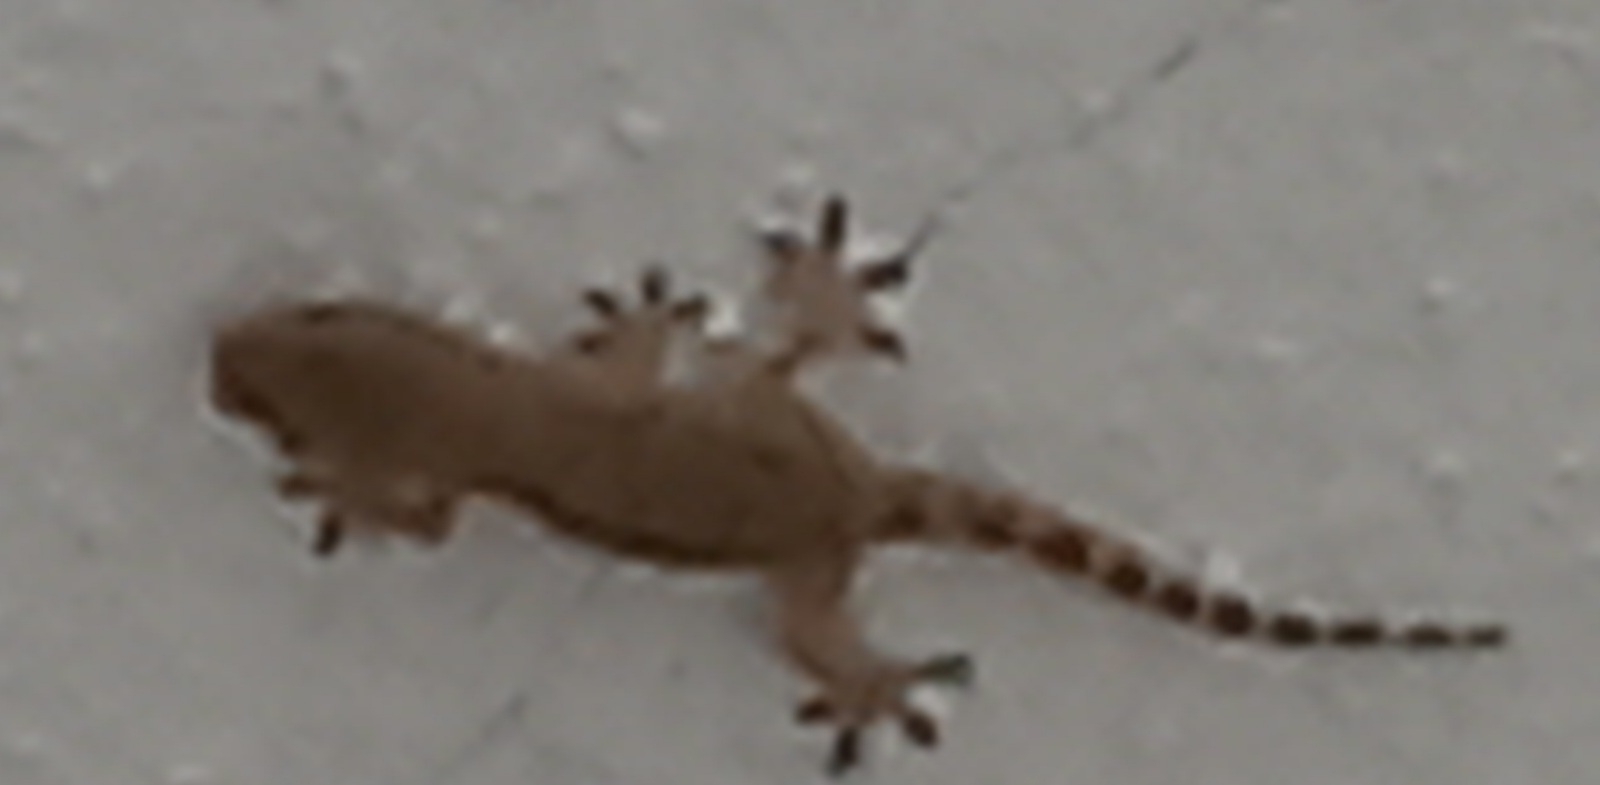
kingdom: Animalia
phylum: Chordata
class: Squamata
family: Phyllodactylidae
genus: Tarentola
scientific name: Tarentola mauritanica
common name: Moorish gecko
